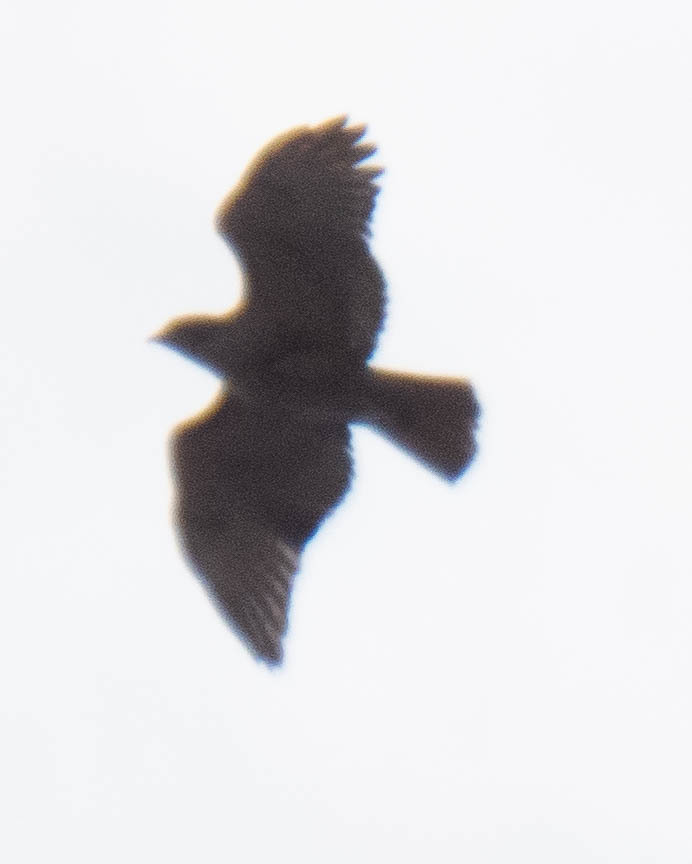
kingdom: Animalia
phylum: Chordata
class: Aves
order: Accipitriformes
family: Accipitridae
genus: Buteo
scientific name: Buteo jamaicensis
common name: Red-tailed hawk
